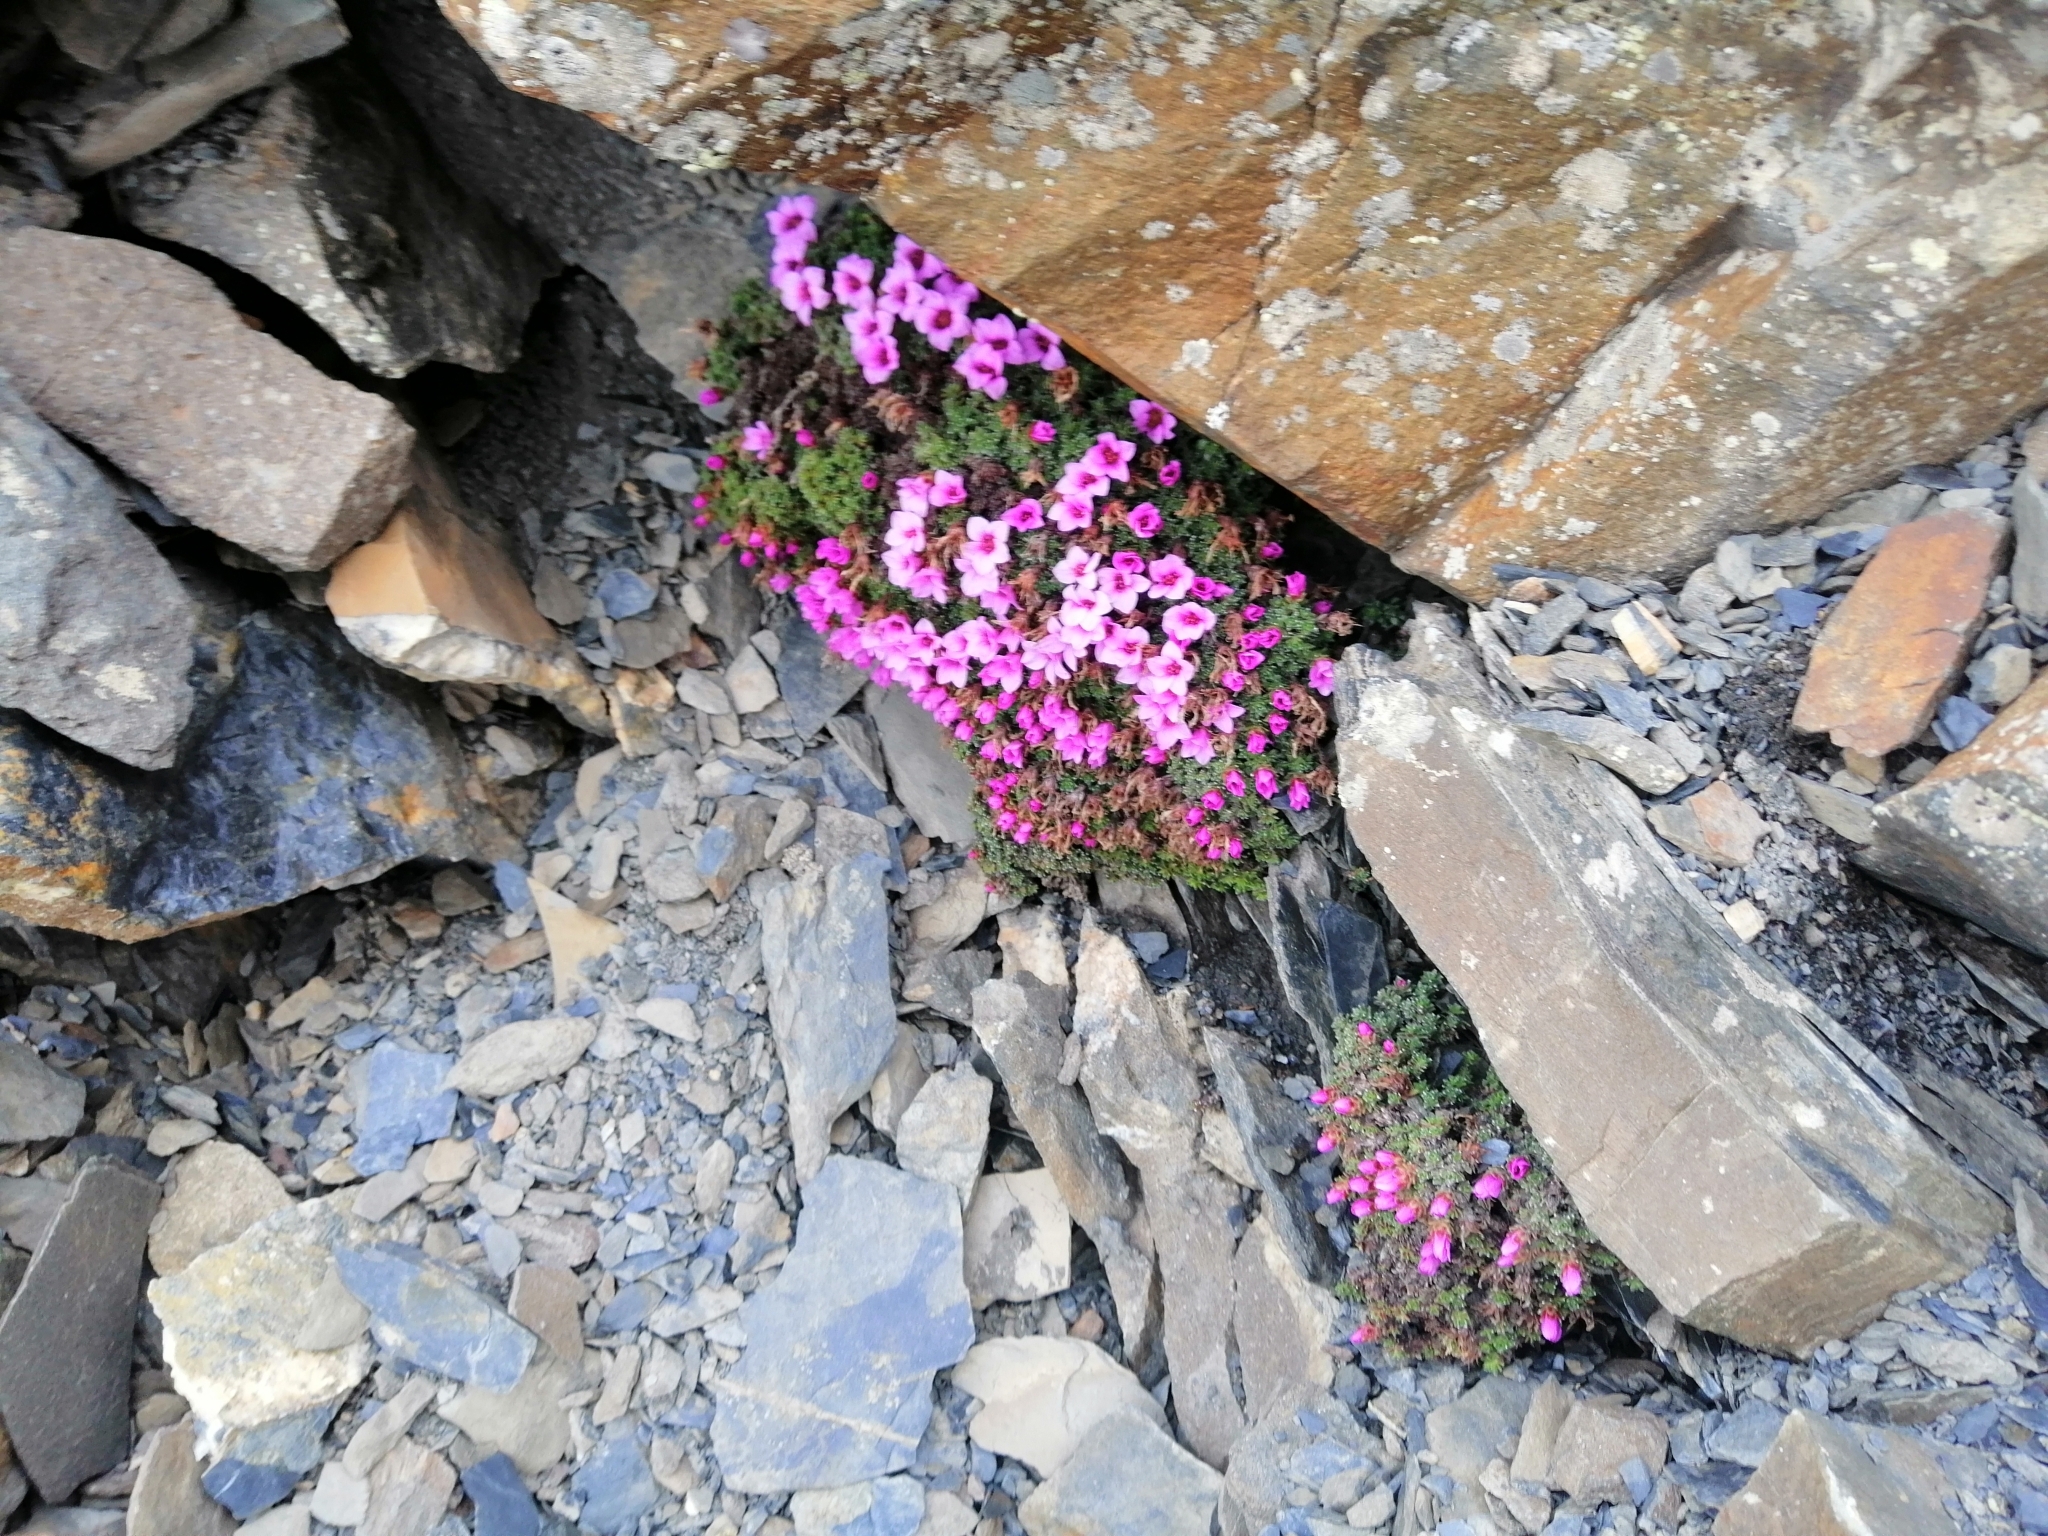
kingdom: Plantae
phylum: Tracheophyta
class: Magnoliopsida
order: Saxifragales
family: Saxifragaceae
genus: Saxifraga
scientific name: Saxifraga oppositifolia
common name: Purple saxifrage
